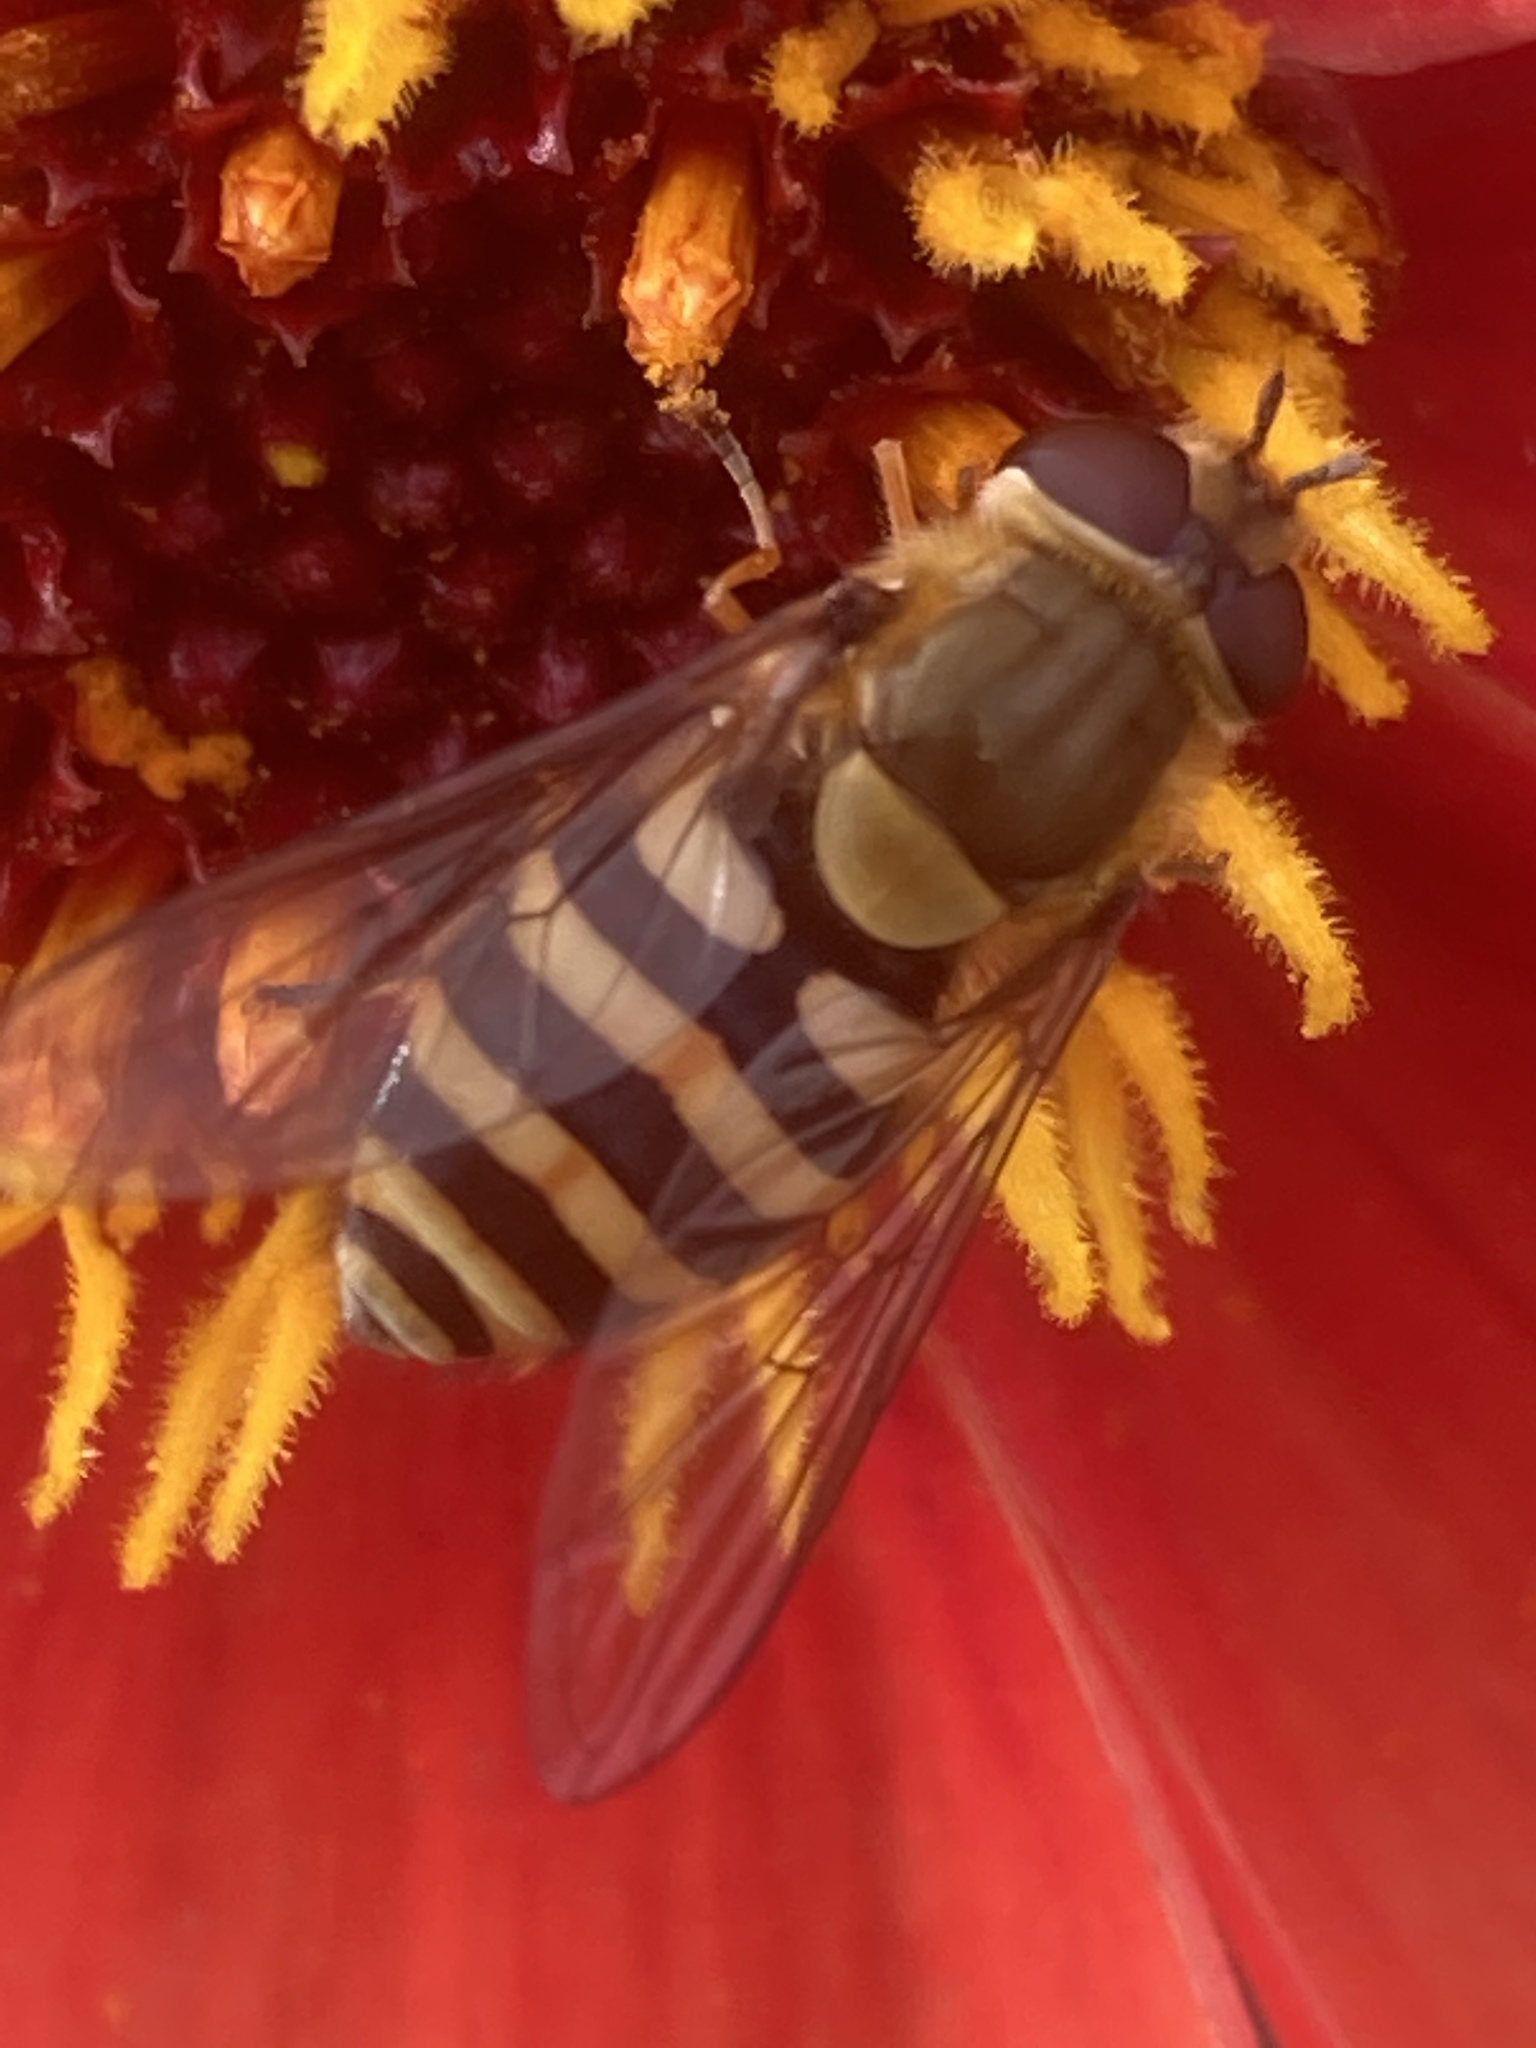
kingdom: Animalia
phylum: Arthropoda
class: Insecta
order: Diptera
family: Syrphidae
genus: Syrphus
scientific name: Syrphus
